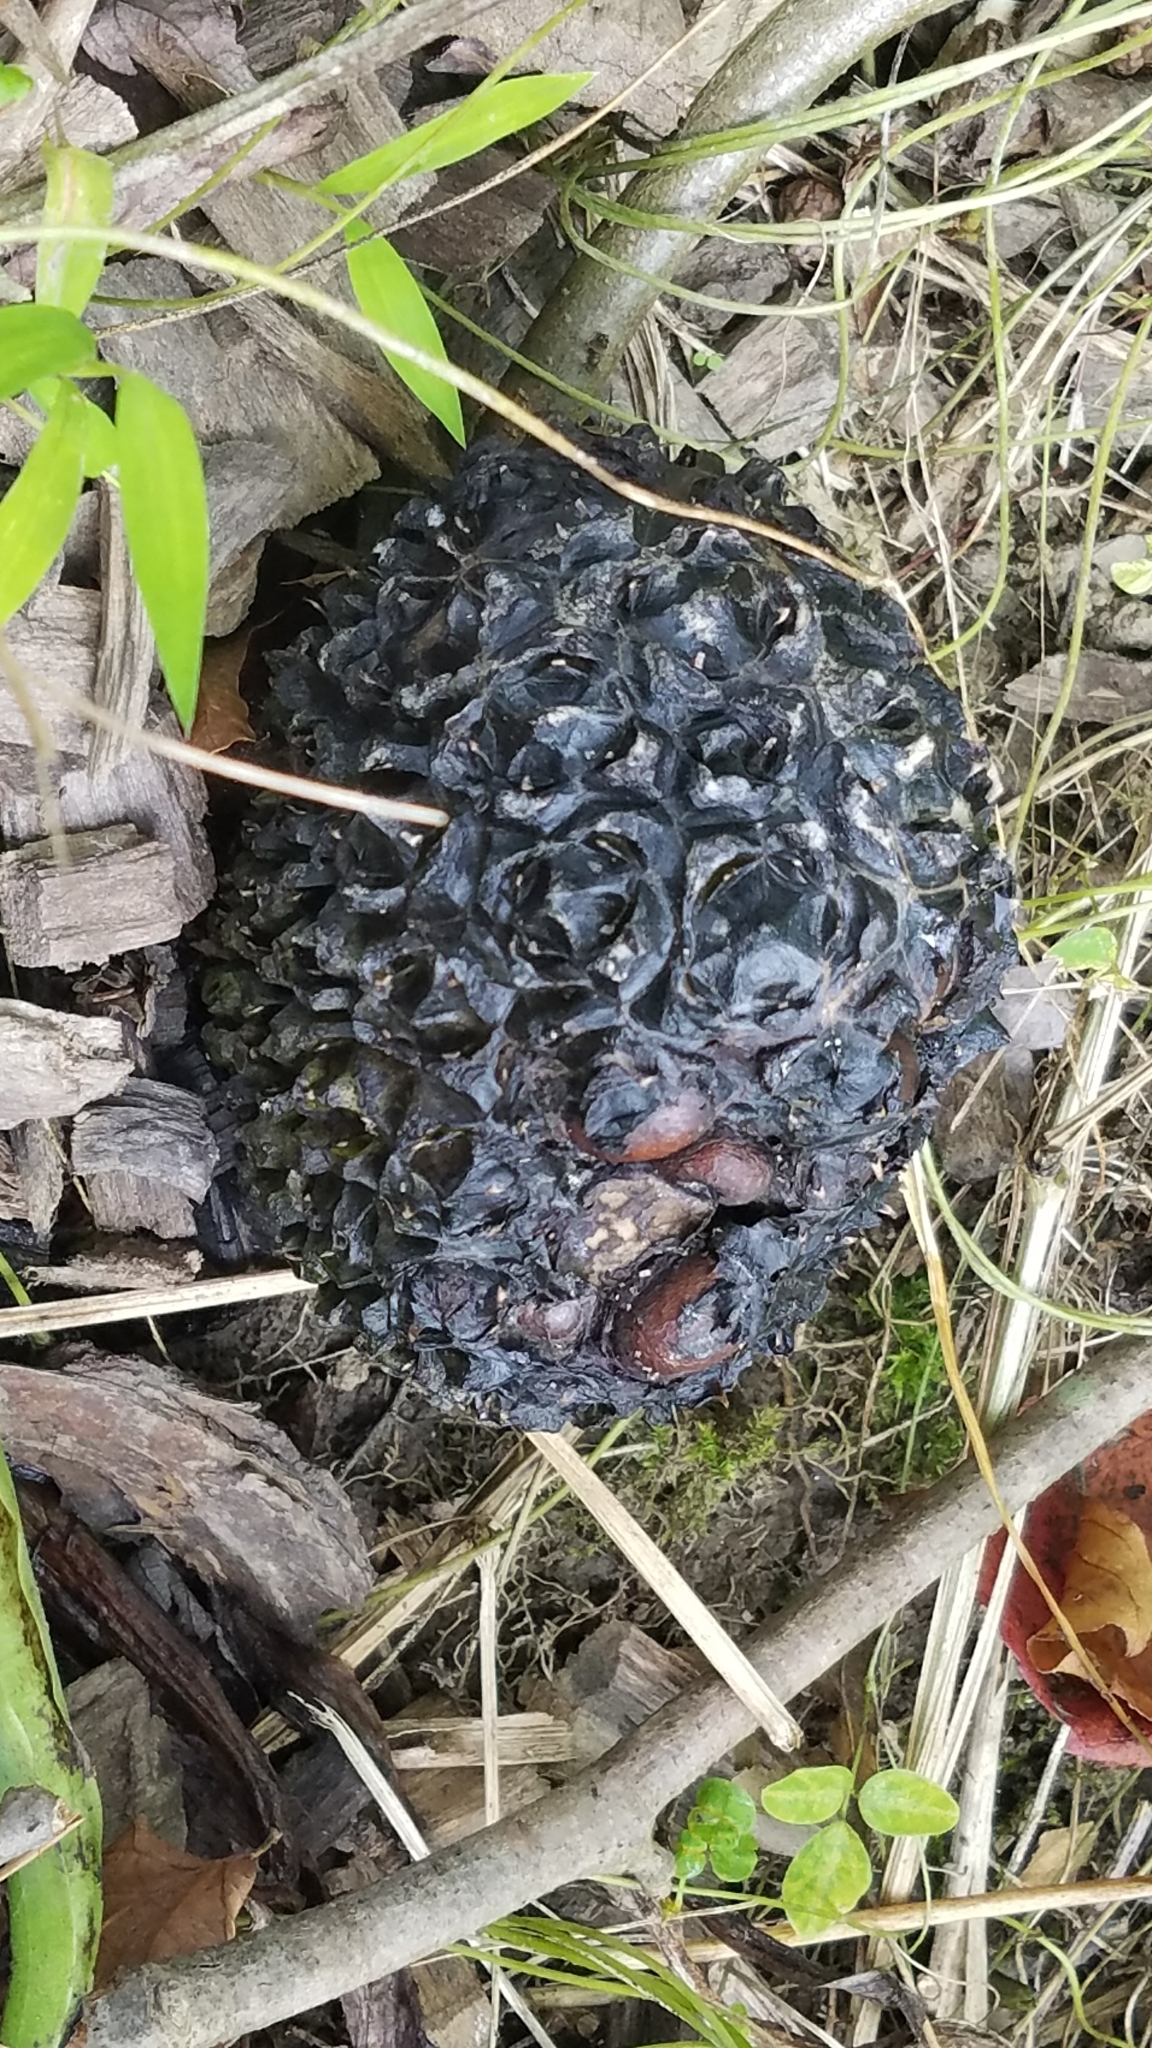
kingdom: Plantae
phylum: Tracheophyta
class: Liliopsida
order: Alismatales
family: Araceae
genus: Symplocarpus
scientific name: Symplocarpus foetidus
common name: Eastern skunk cabbage
